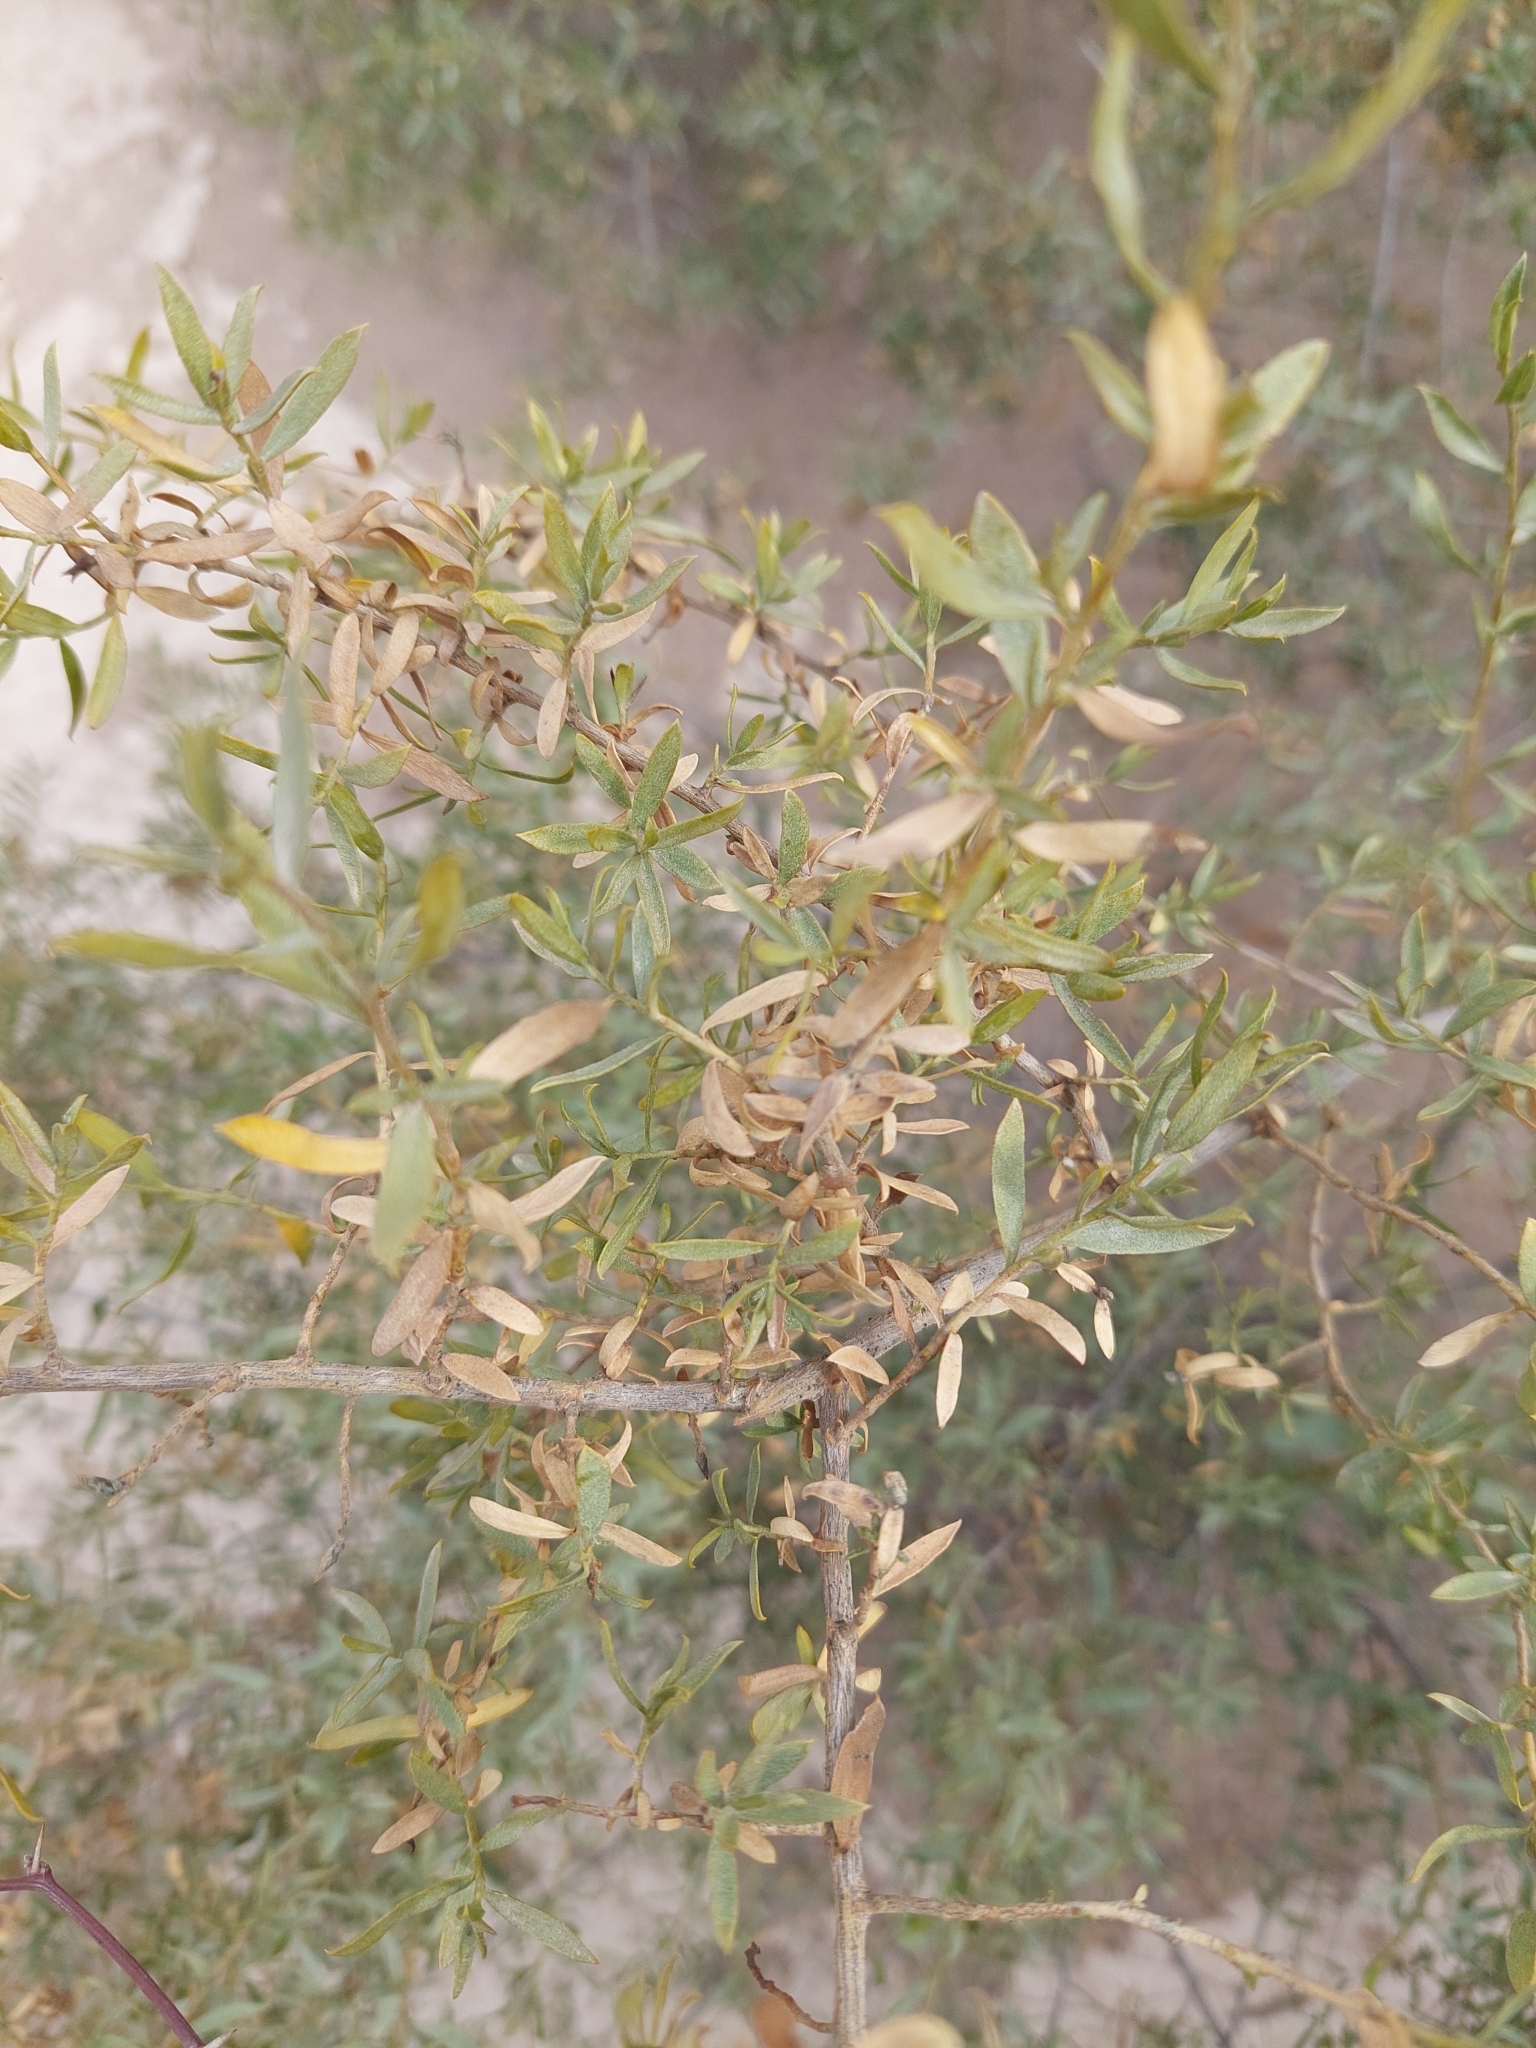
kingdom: Plantae
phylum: Tracheophyta
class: Magnoliopsida
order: Asterales
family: Asteraceae
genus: Gochnatia
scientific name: Gochnatia glutinosa
